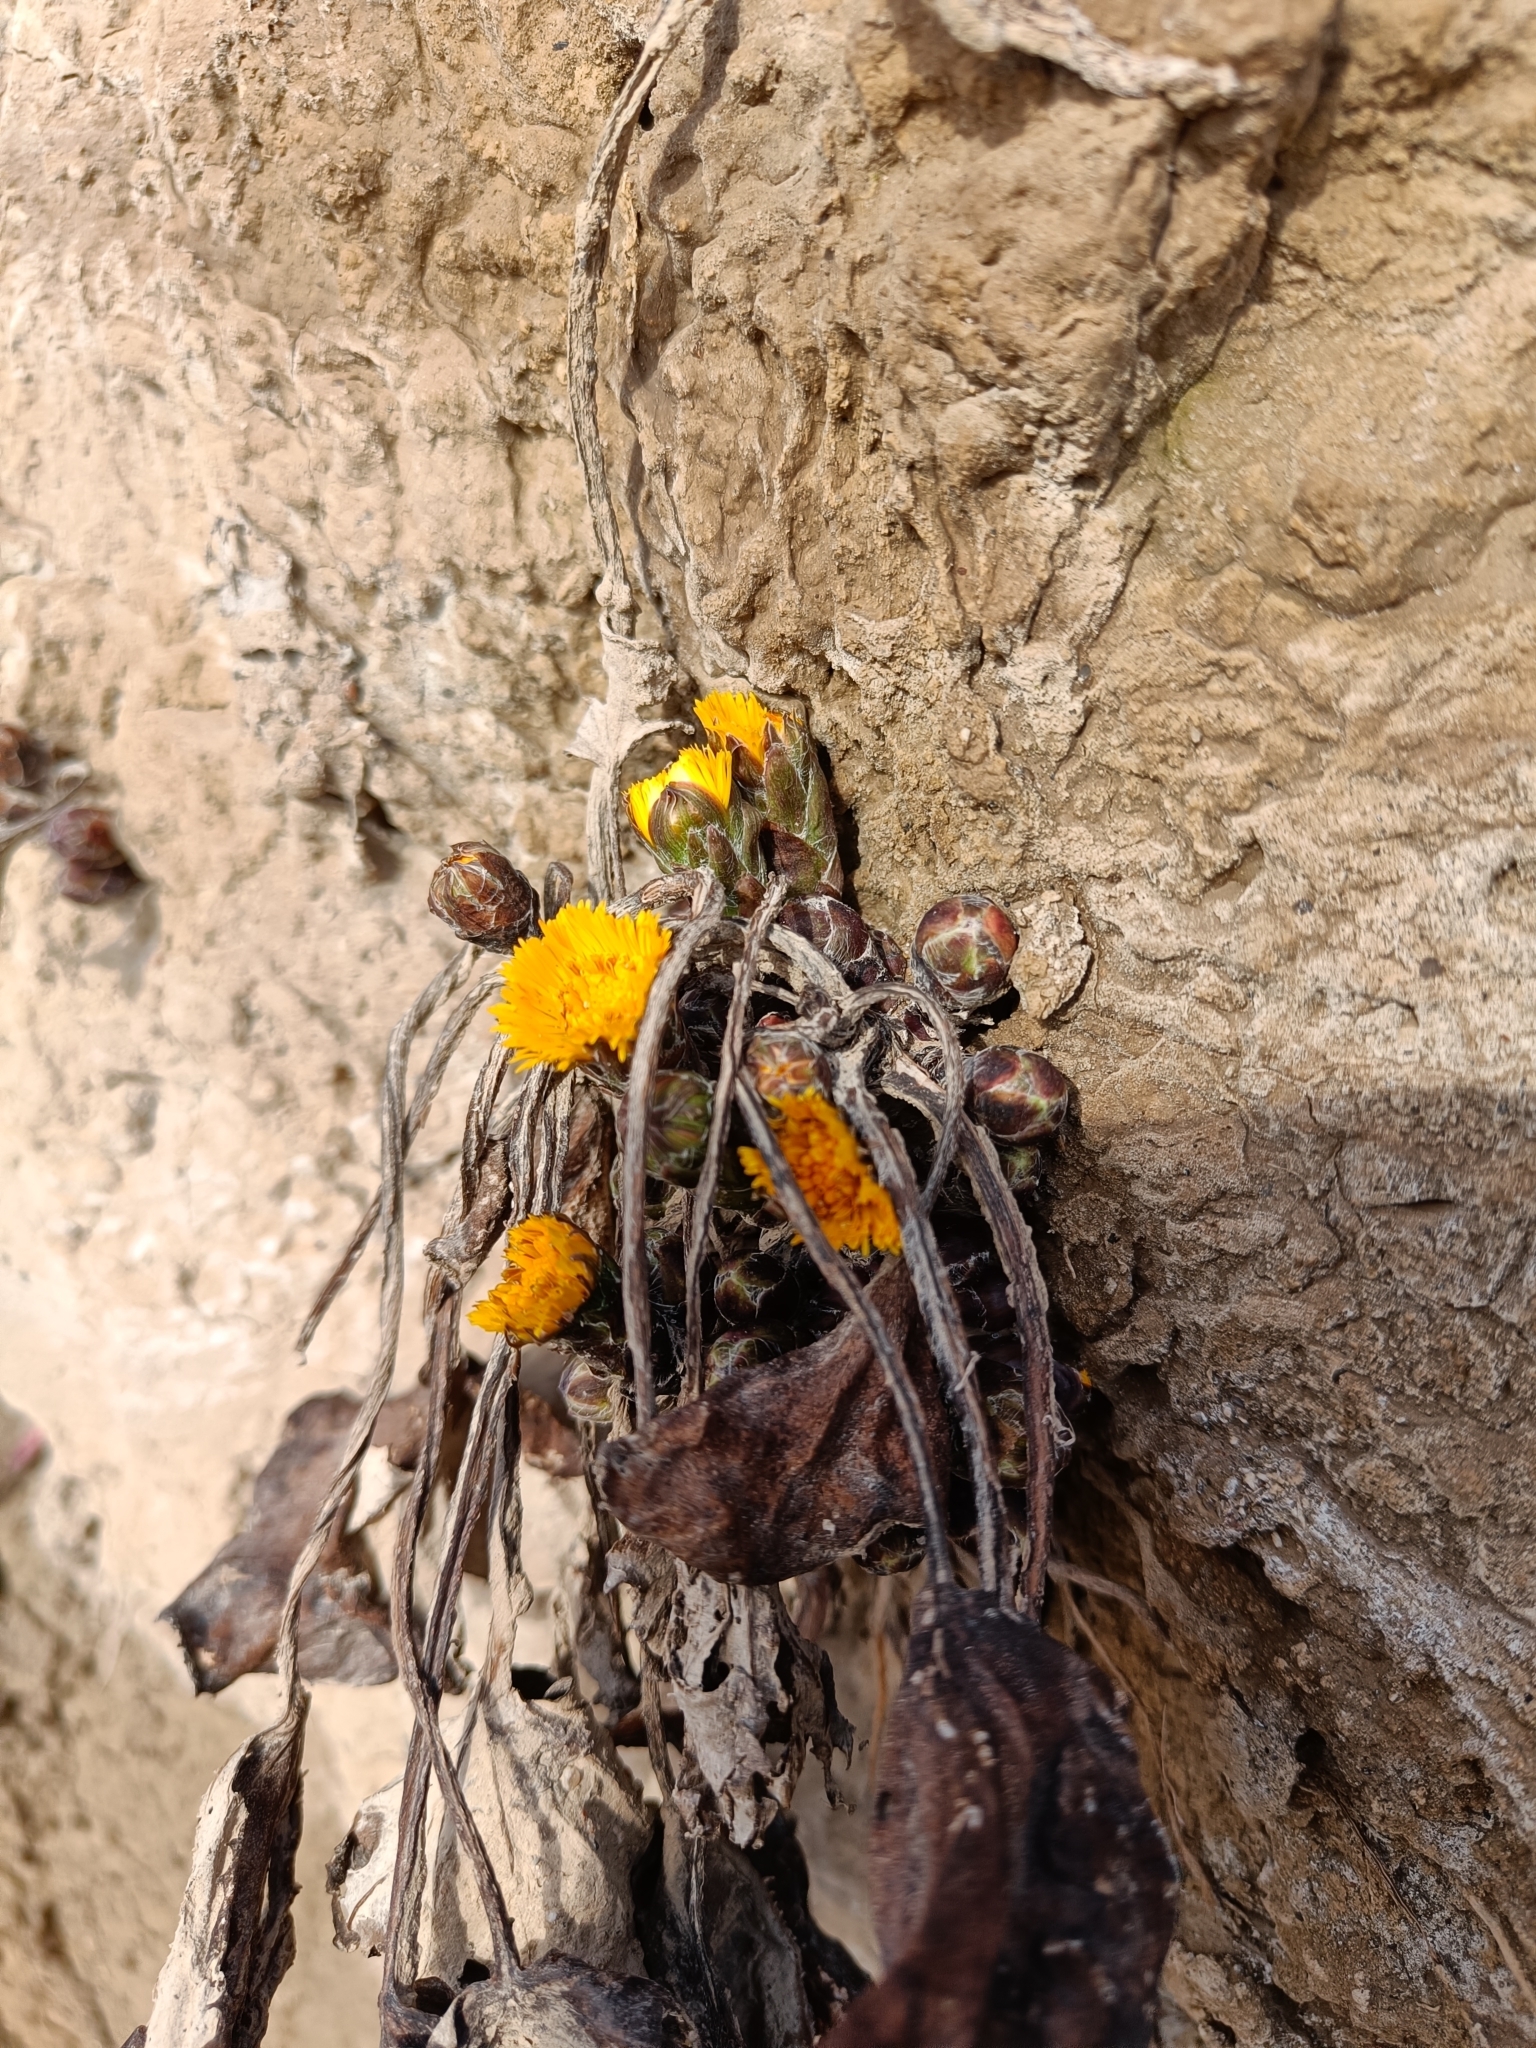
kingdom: Plantae
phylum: Tracheophyta
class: Magnoliopsida
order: Asterales
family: Asteraceae
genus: Tussilago
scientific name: Tussilago farfara
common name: Coltsfoot
